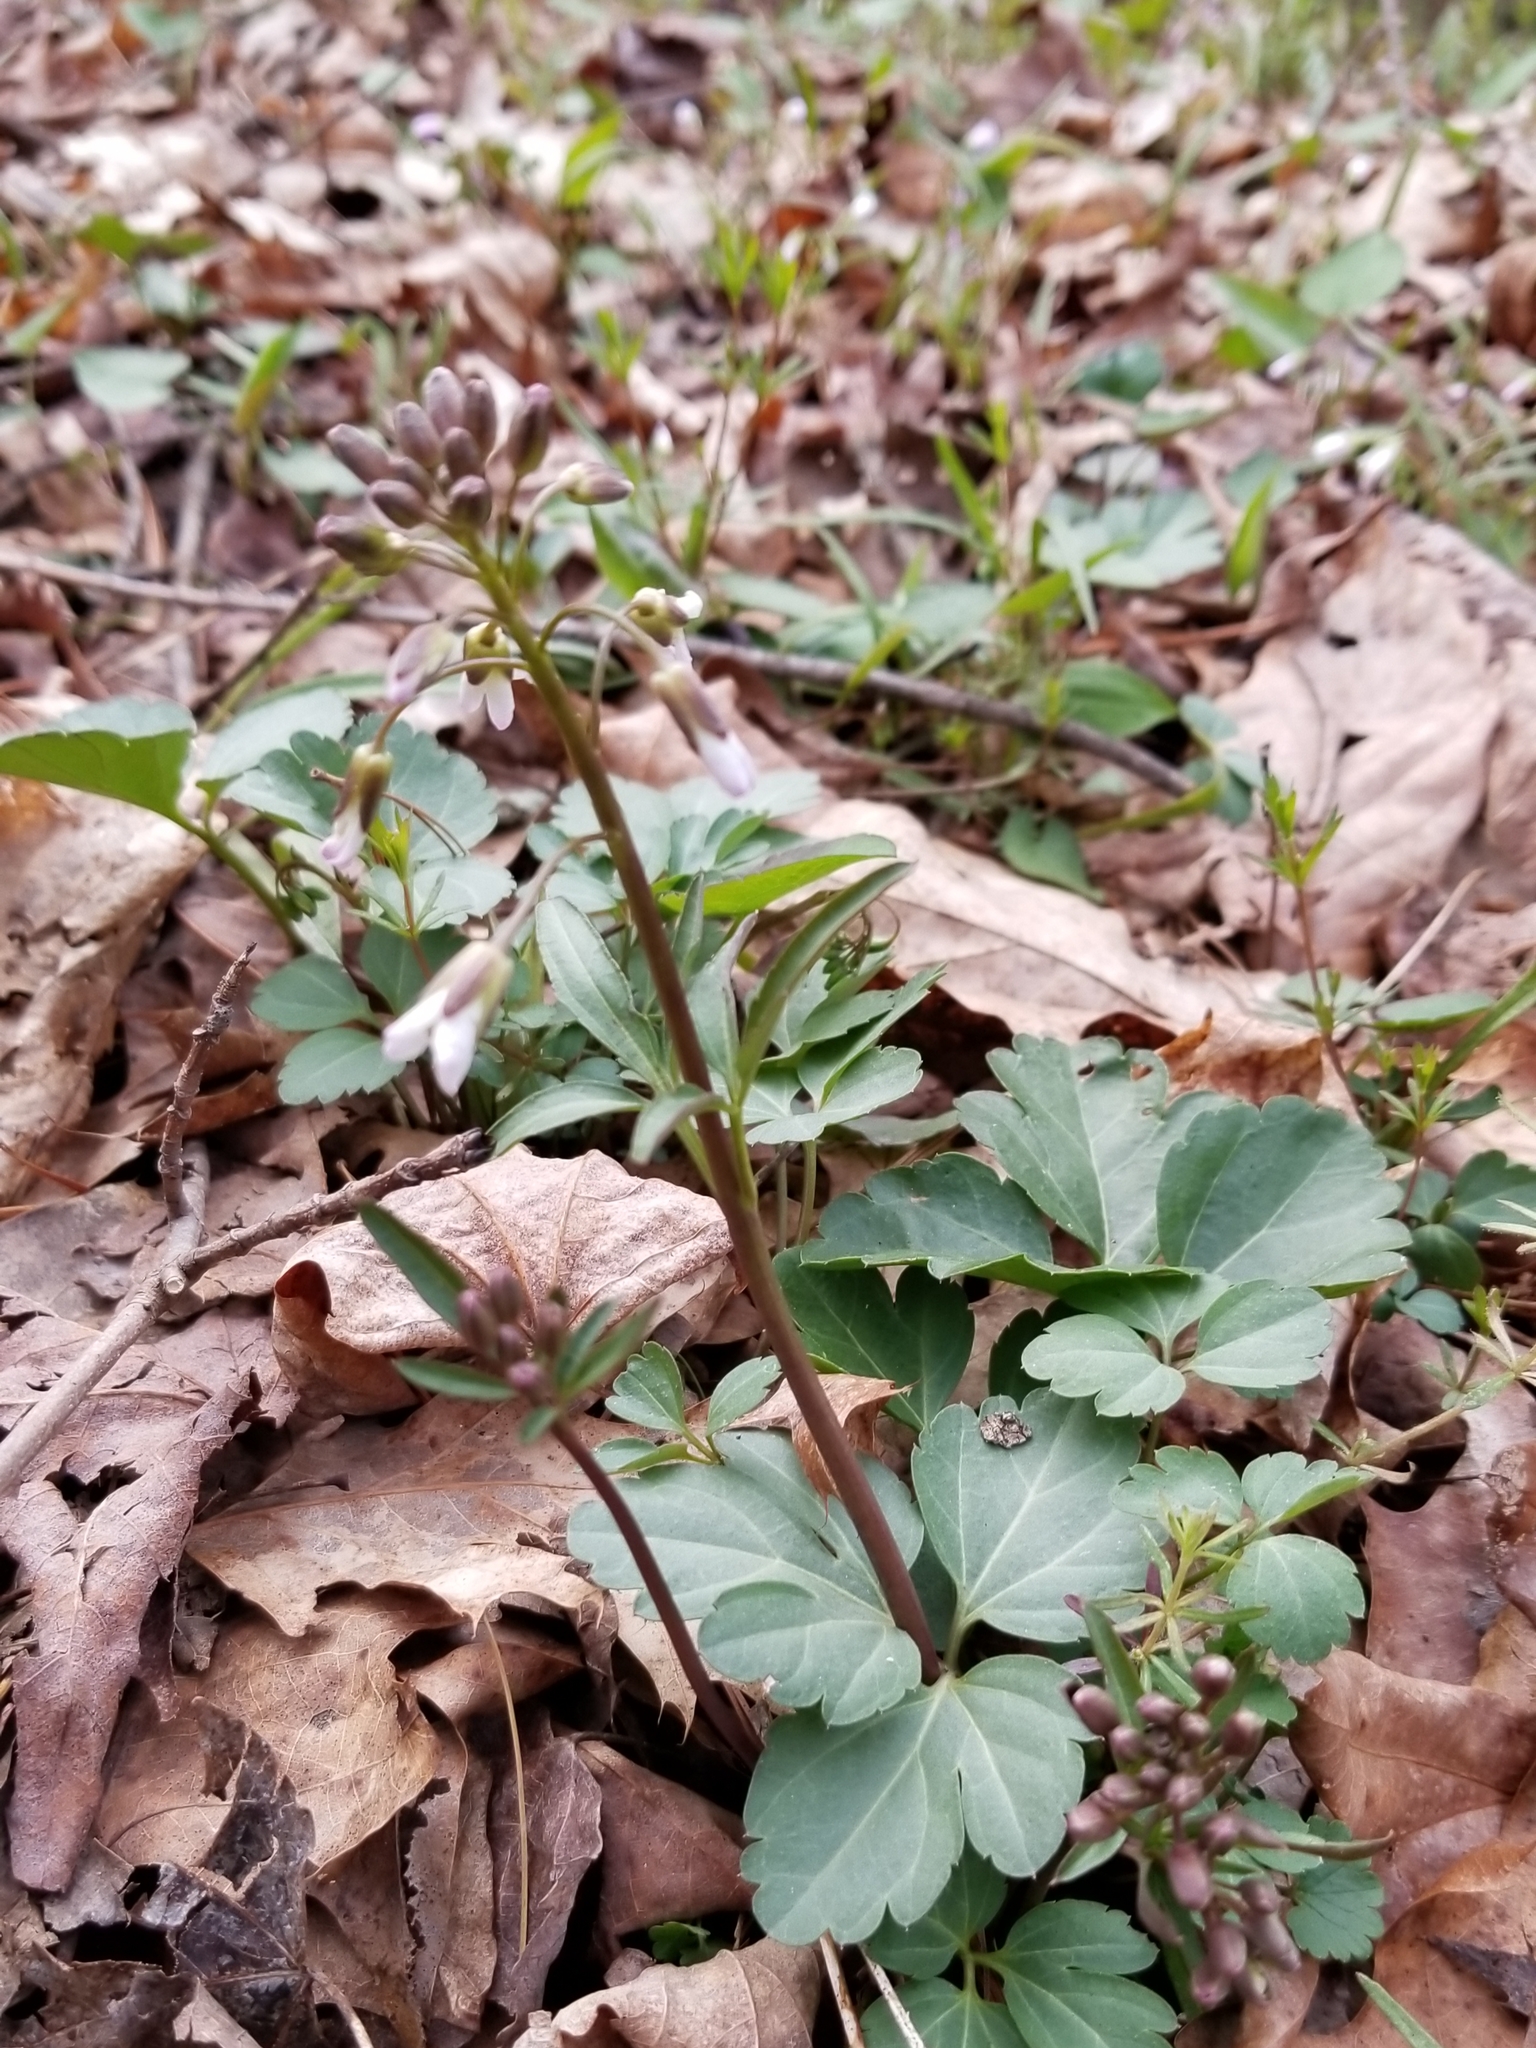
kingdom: Plantae
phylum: Tracheophyta
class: Magnoliopsida
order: Brassicales
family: Brassicaceae
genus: Cardamine
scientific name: Cardamine angustata
